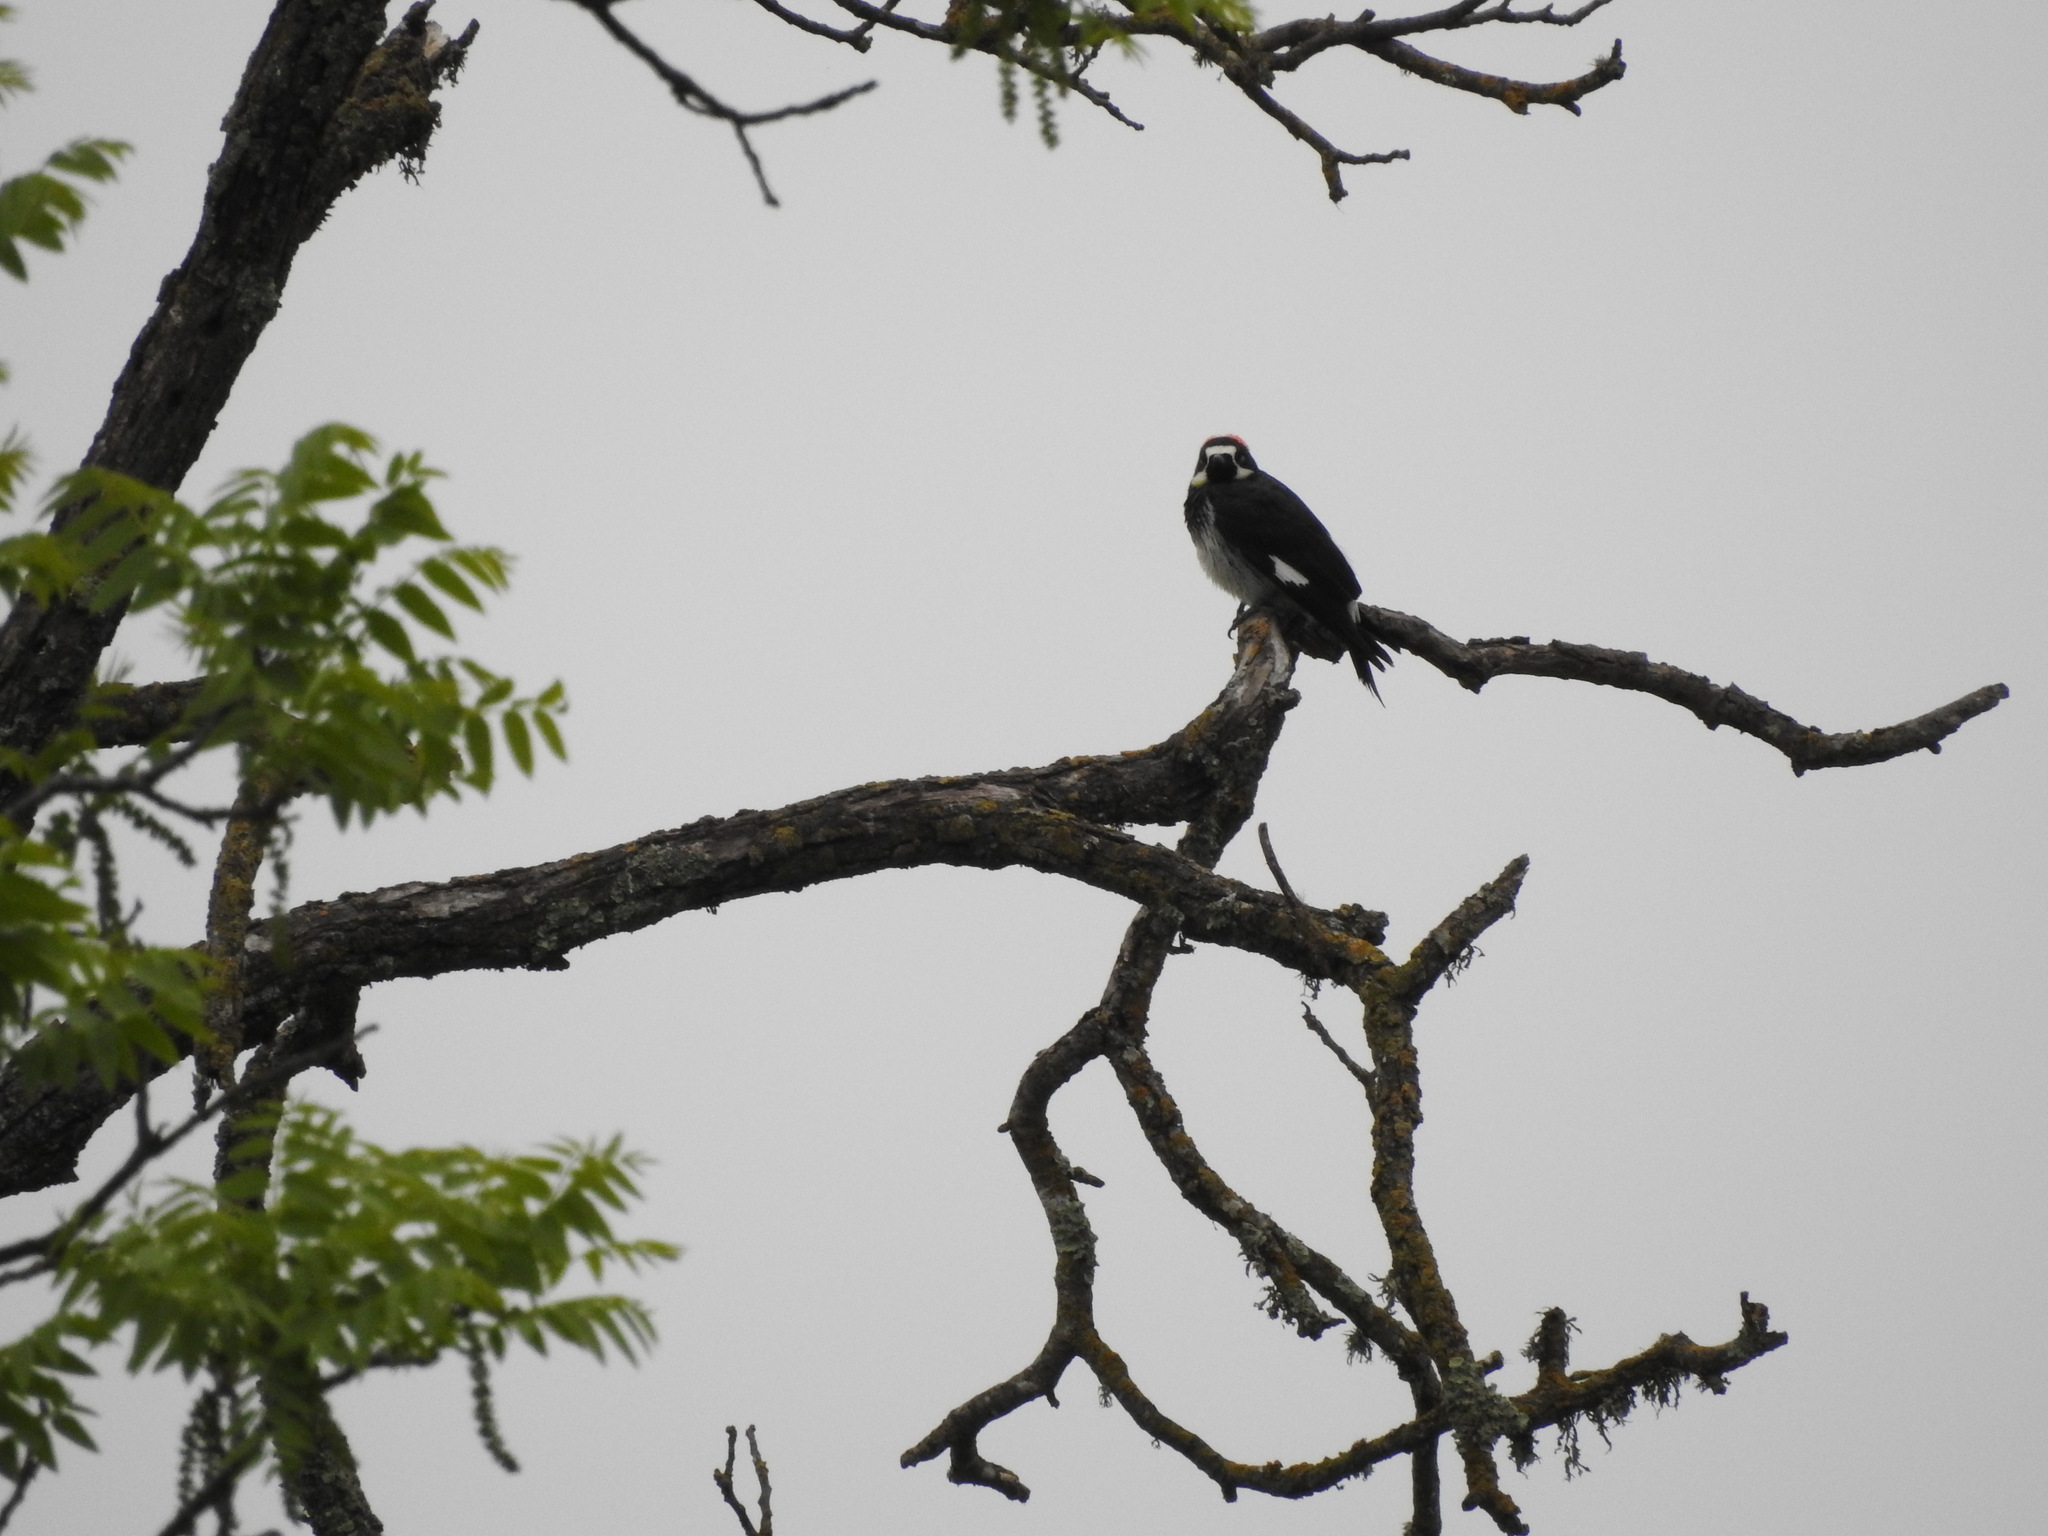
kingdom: Animalia
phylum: Chordata
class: Aves
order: Piciformes
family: Picidae
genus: Melanerpes
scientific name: Melanerpes formicivorus
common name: Acorn woodpecker
